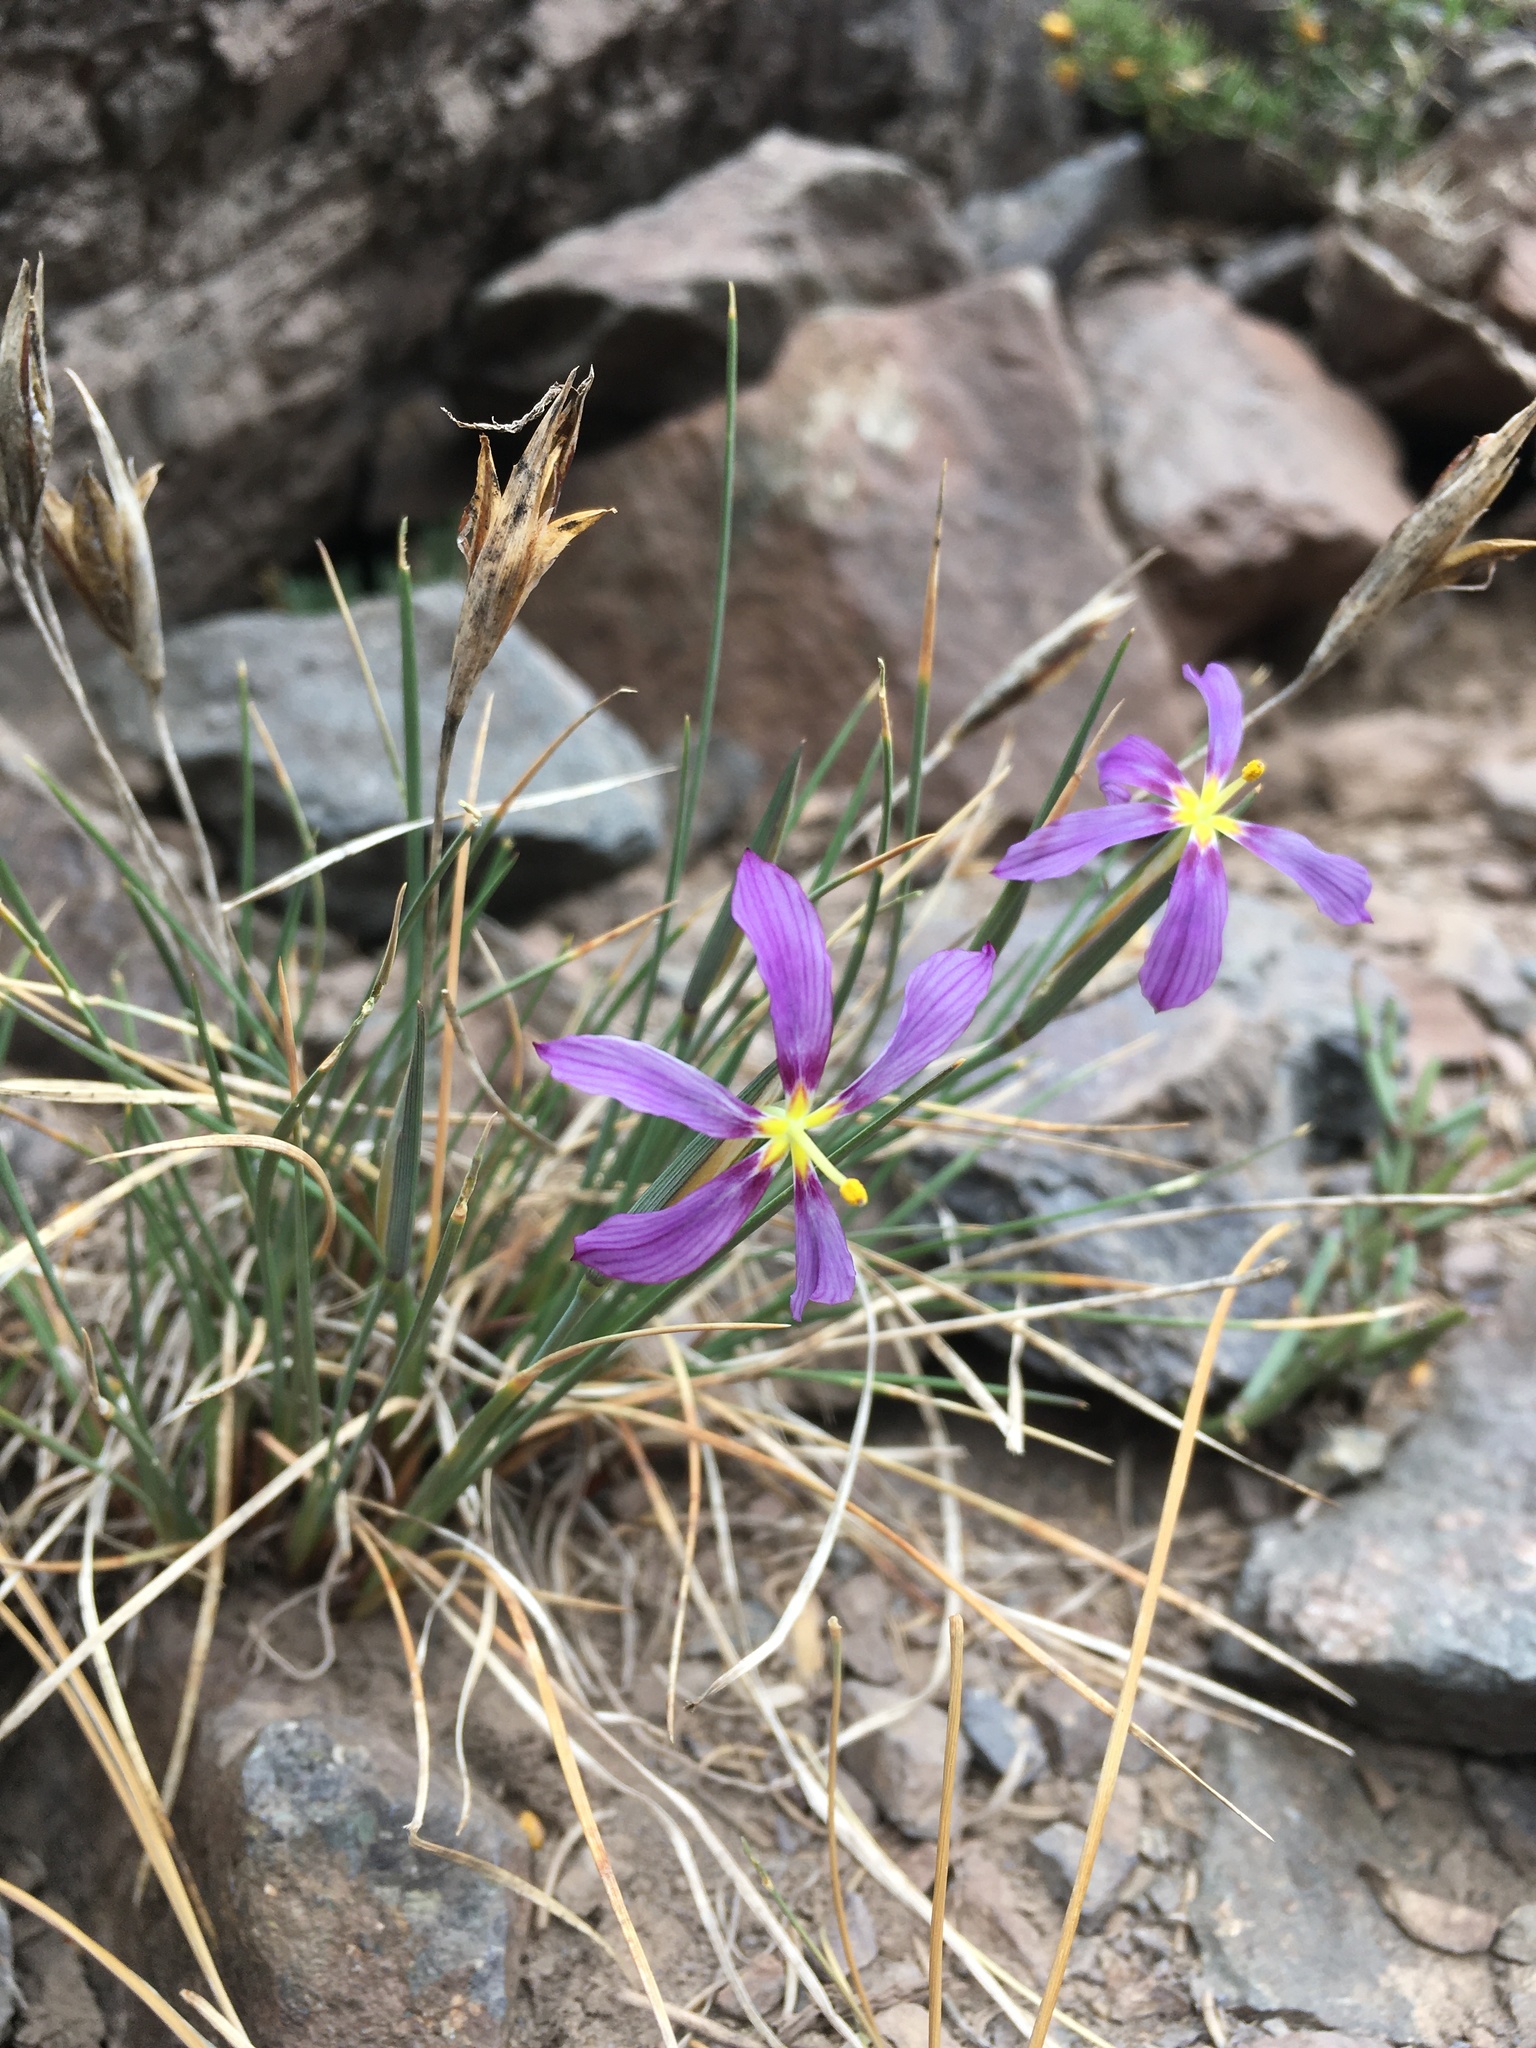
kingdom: Plantae
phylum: Tracheophyta
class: Liliopsida
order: Asparagales
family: Iridaceae
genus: Solenomelus
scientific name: Solenomelus segethi
